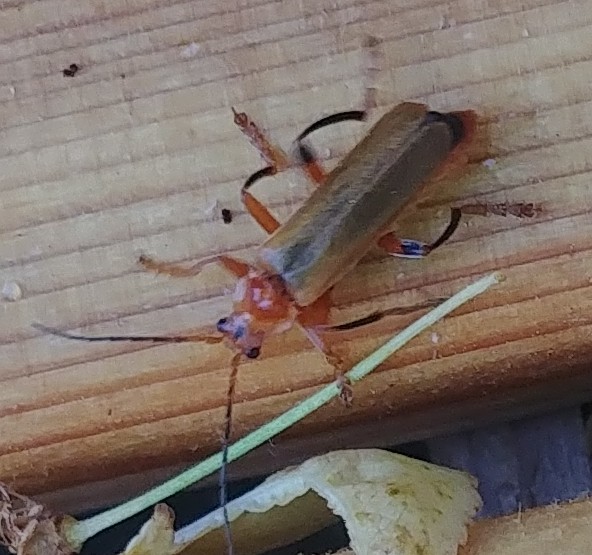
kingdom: Animalia
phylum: Arthropoda
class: Insecta
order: Coleoptera
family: Cantharidae
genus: Cantharis
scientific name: Cantharis livida
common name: Livid soldier beetle
